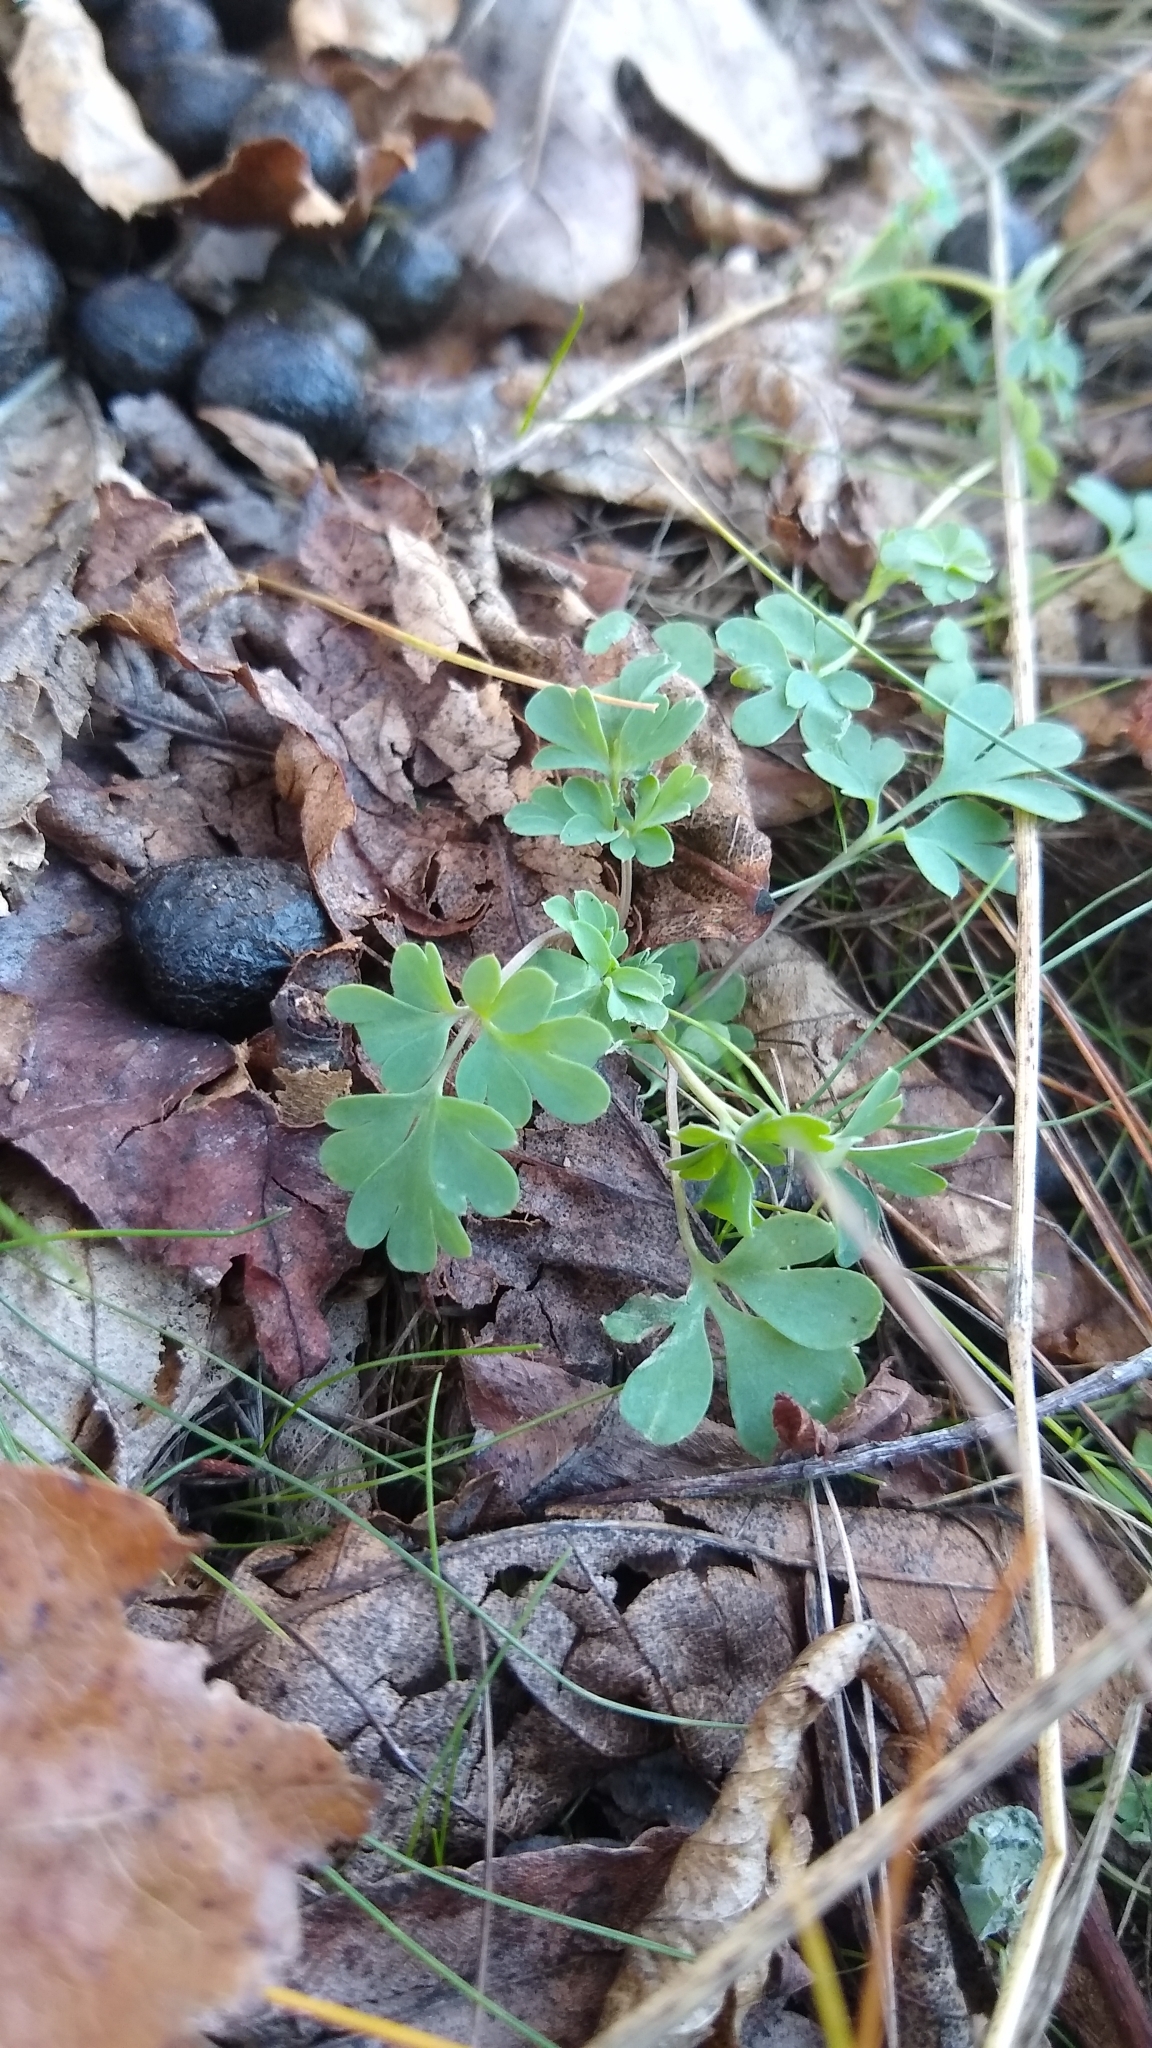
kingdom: Plantae
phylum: Tracheophyta
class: Magnoliopsida
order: Ranunculales
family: Papaveraceae
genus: Capnoides
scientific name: Capnoides sempervirens
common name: Rock harlequin
